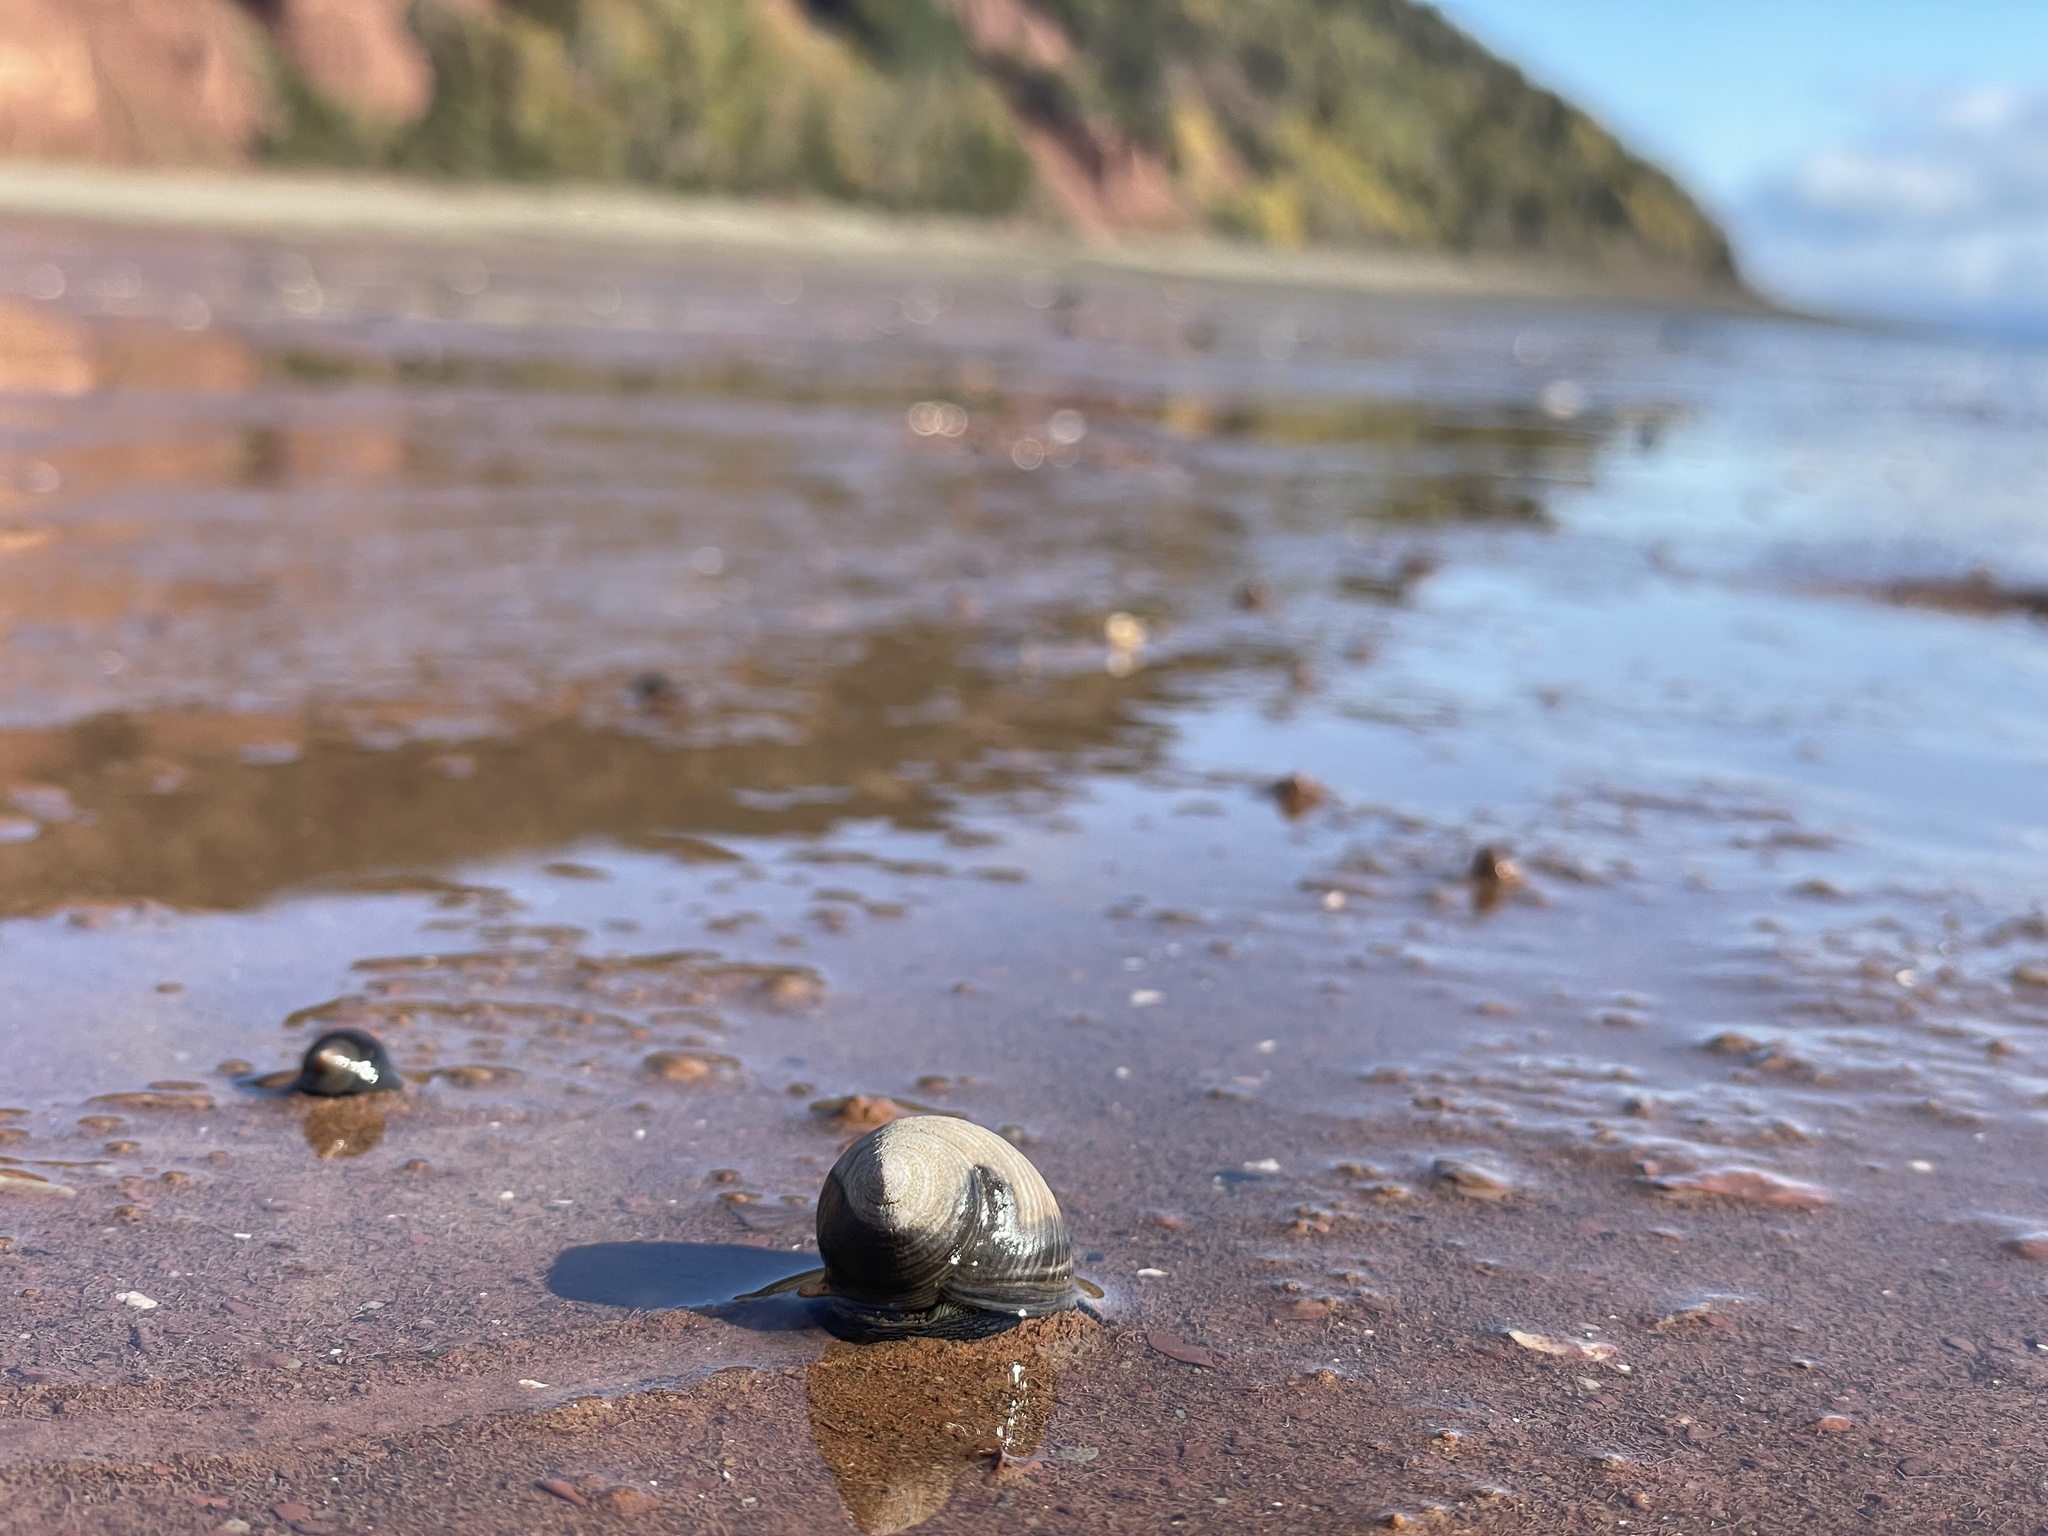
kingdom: Animalia
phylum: Mollusca
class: Gastropoda
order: Littorinimorpha
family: Littorinidae
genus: Littorina
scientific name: Littorina littorea
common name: Common periwinkle
